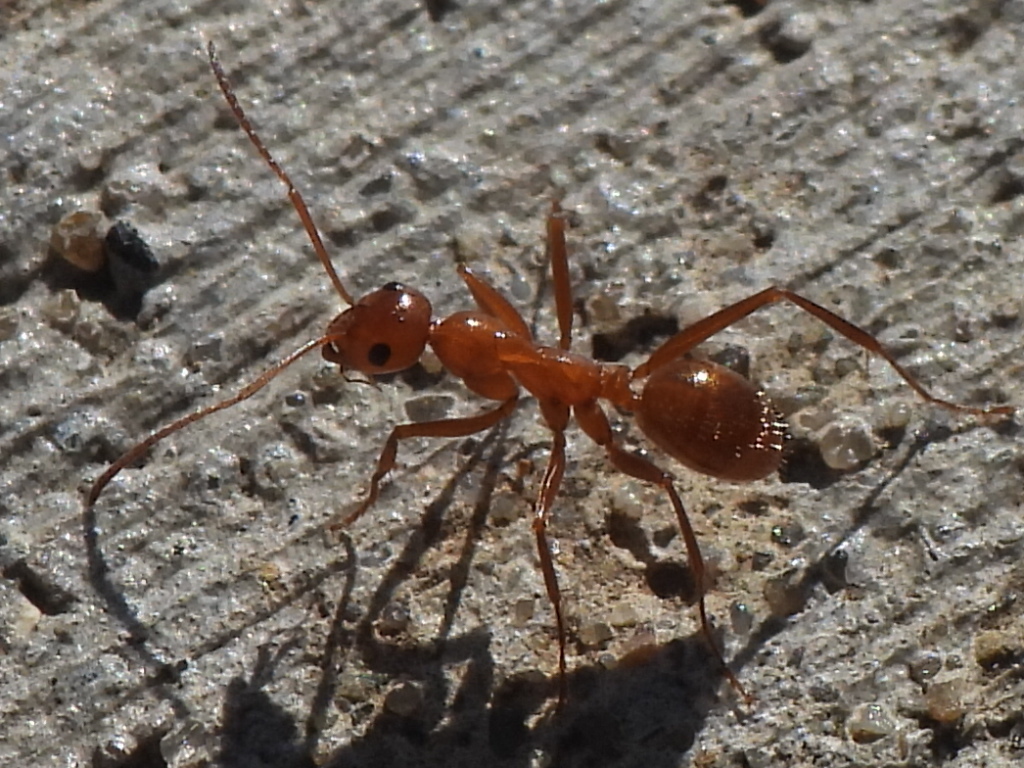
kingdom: Animalia
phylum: Arthropoda
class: Insecta
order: Hymenoptera
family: Formicidae
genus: Formica
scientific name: Formica pallidefulva
